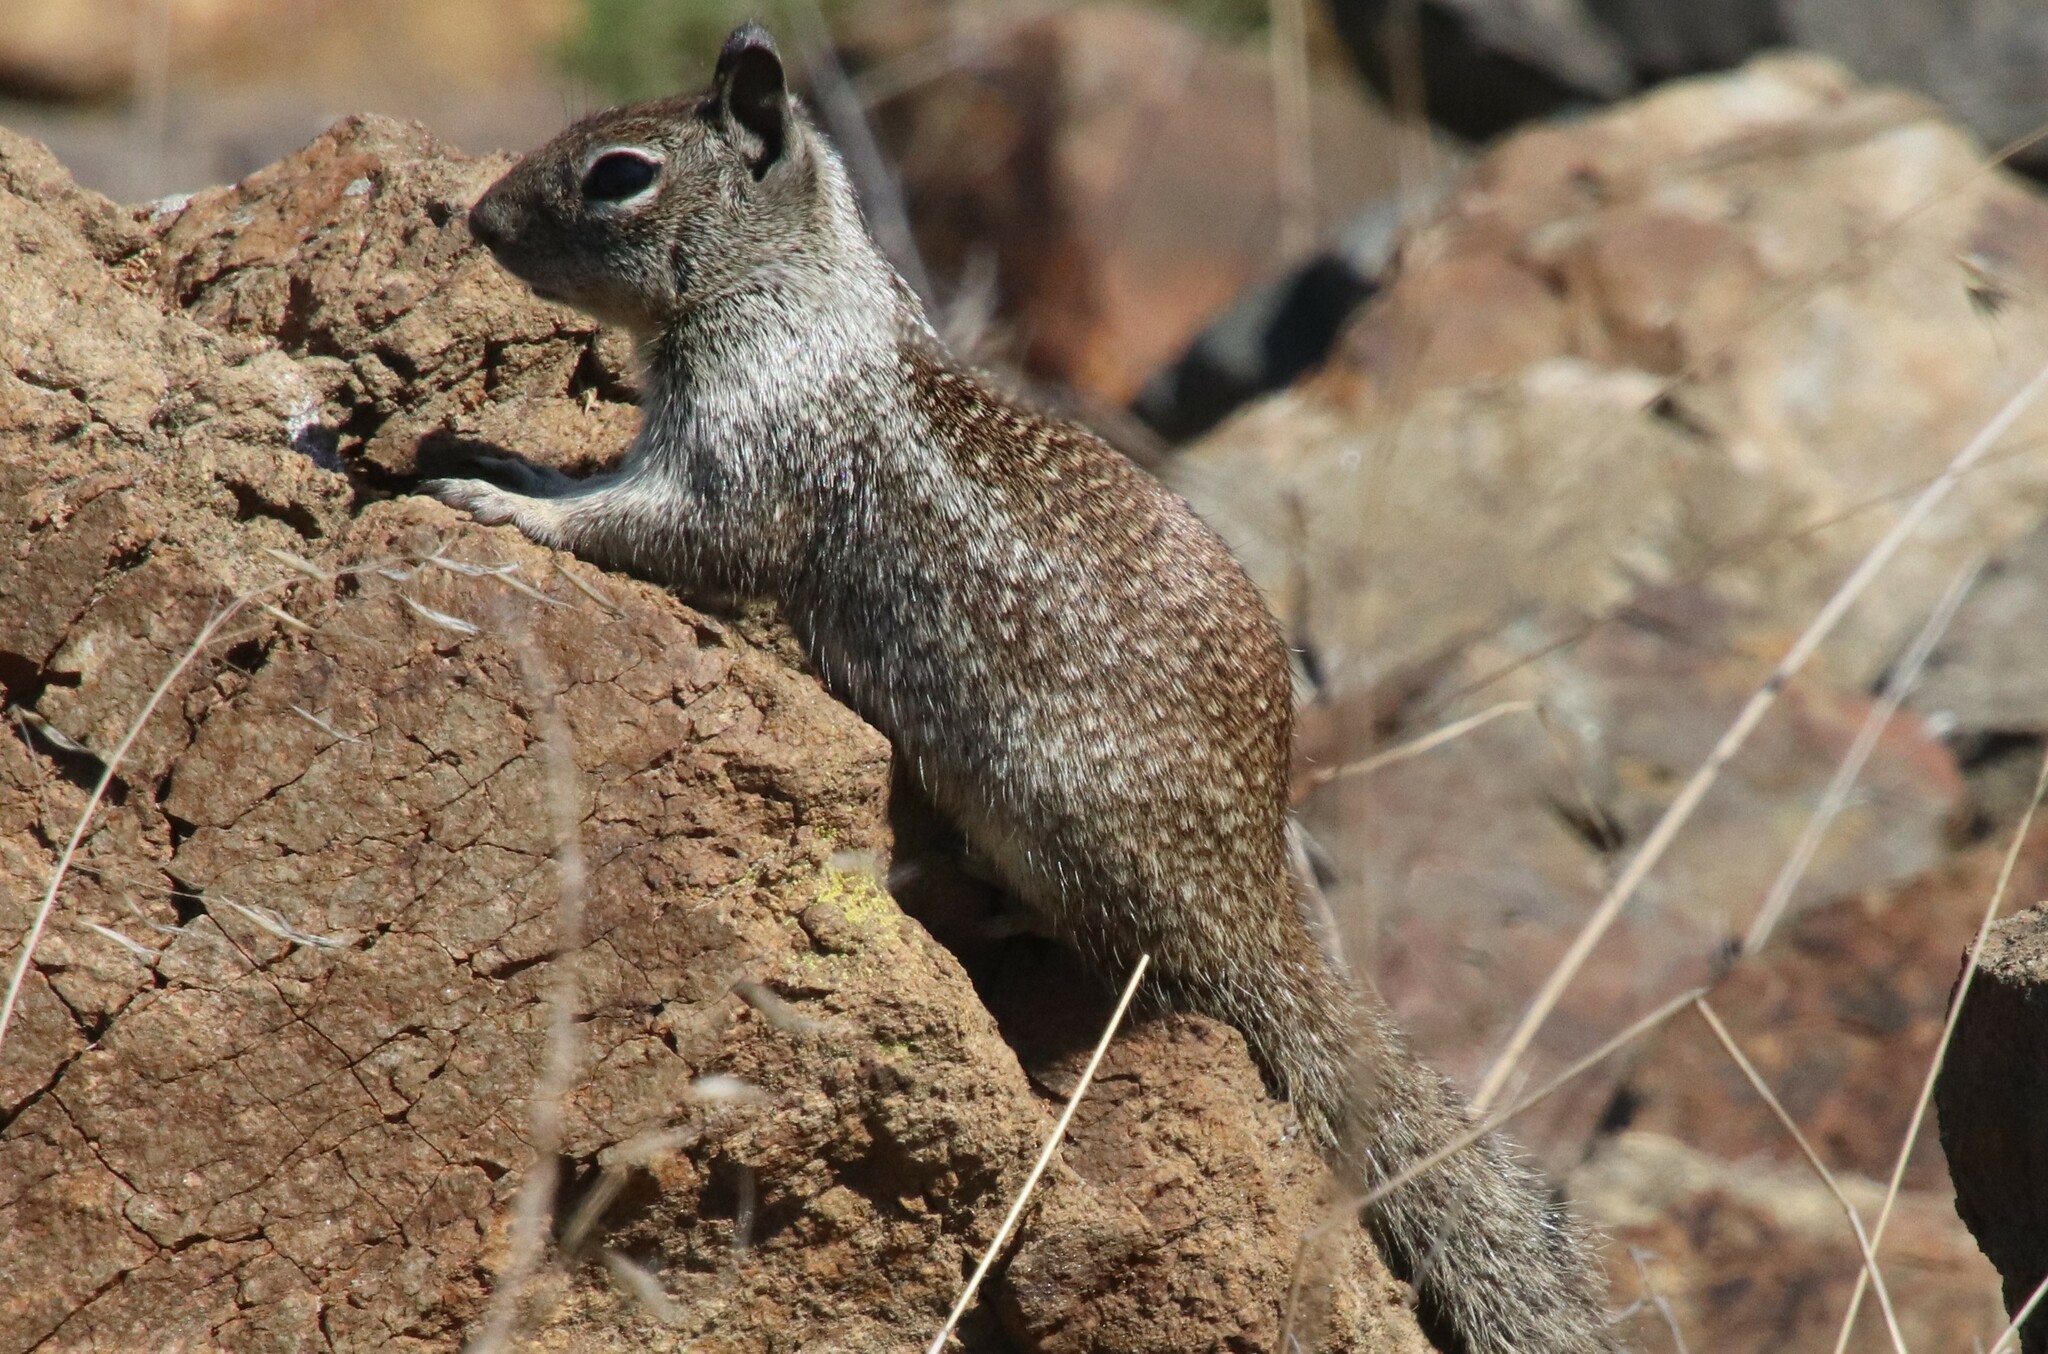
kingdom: Animalia
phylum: Chordata
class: Mammalia
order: Rodentia
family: Sciuridae
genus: Otospermophilus
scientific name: Otospermophilus beecheyi
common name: California ground squirrel
